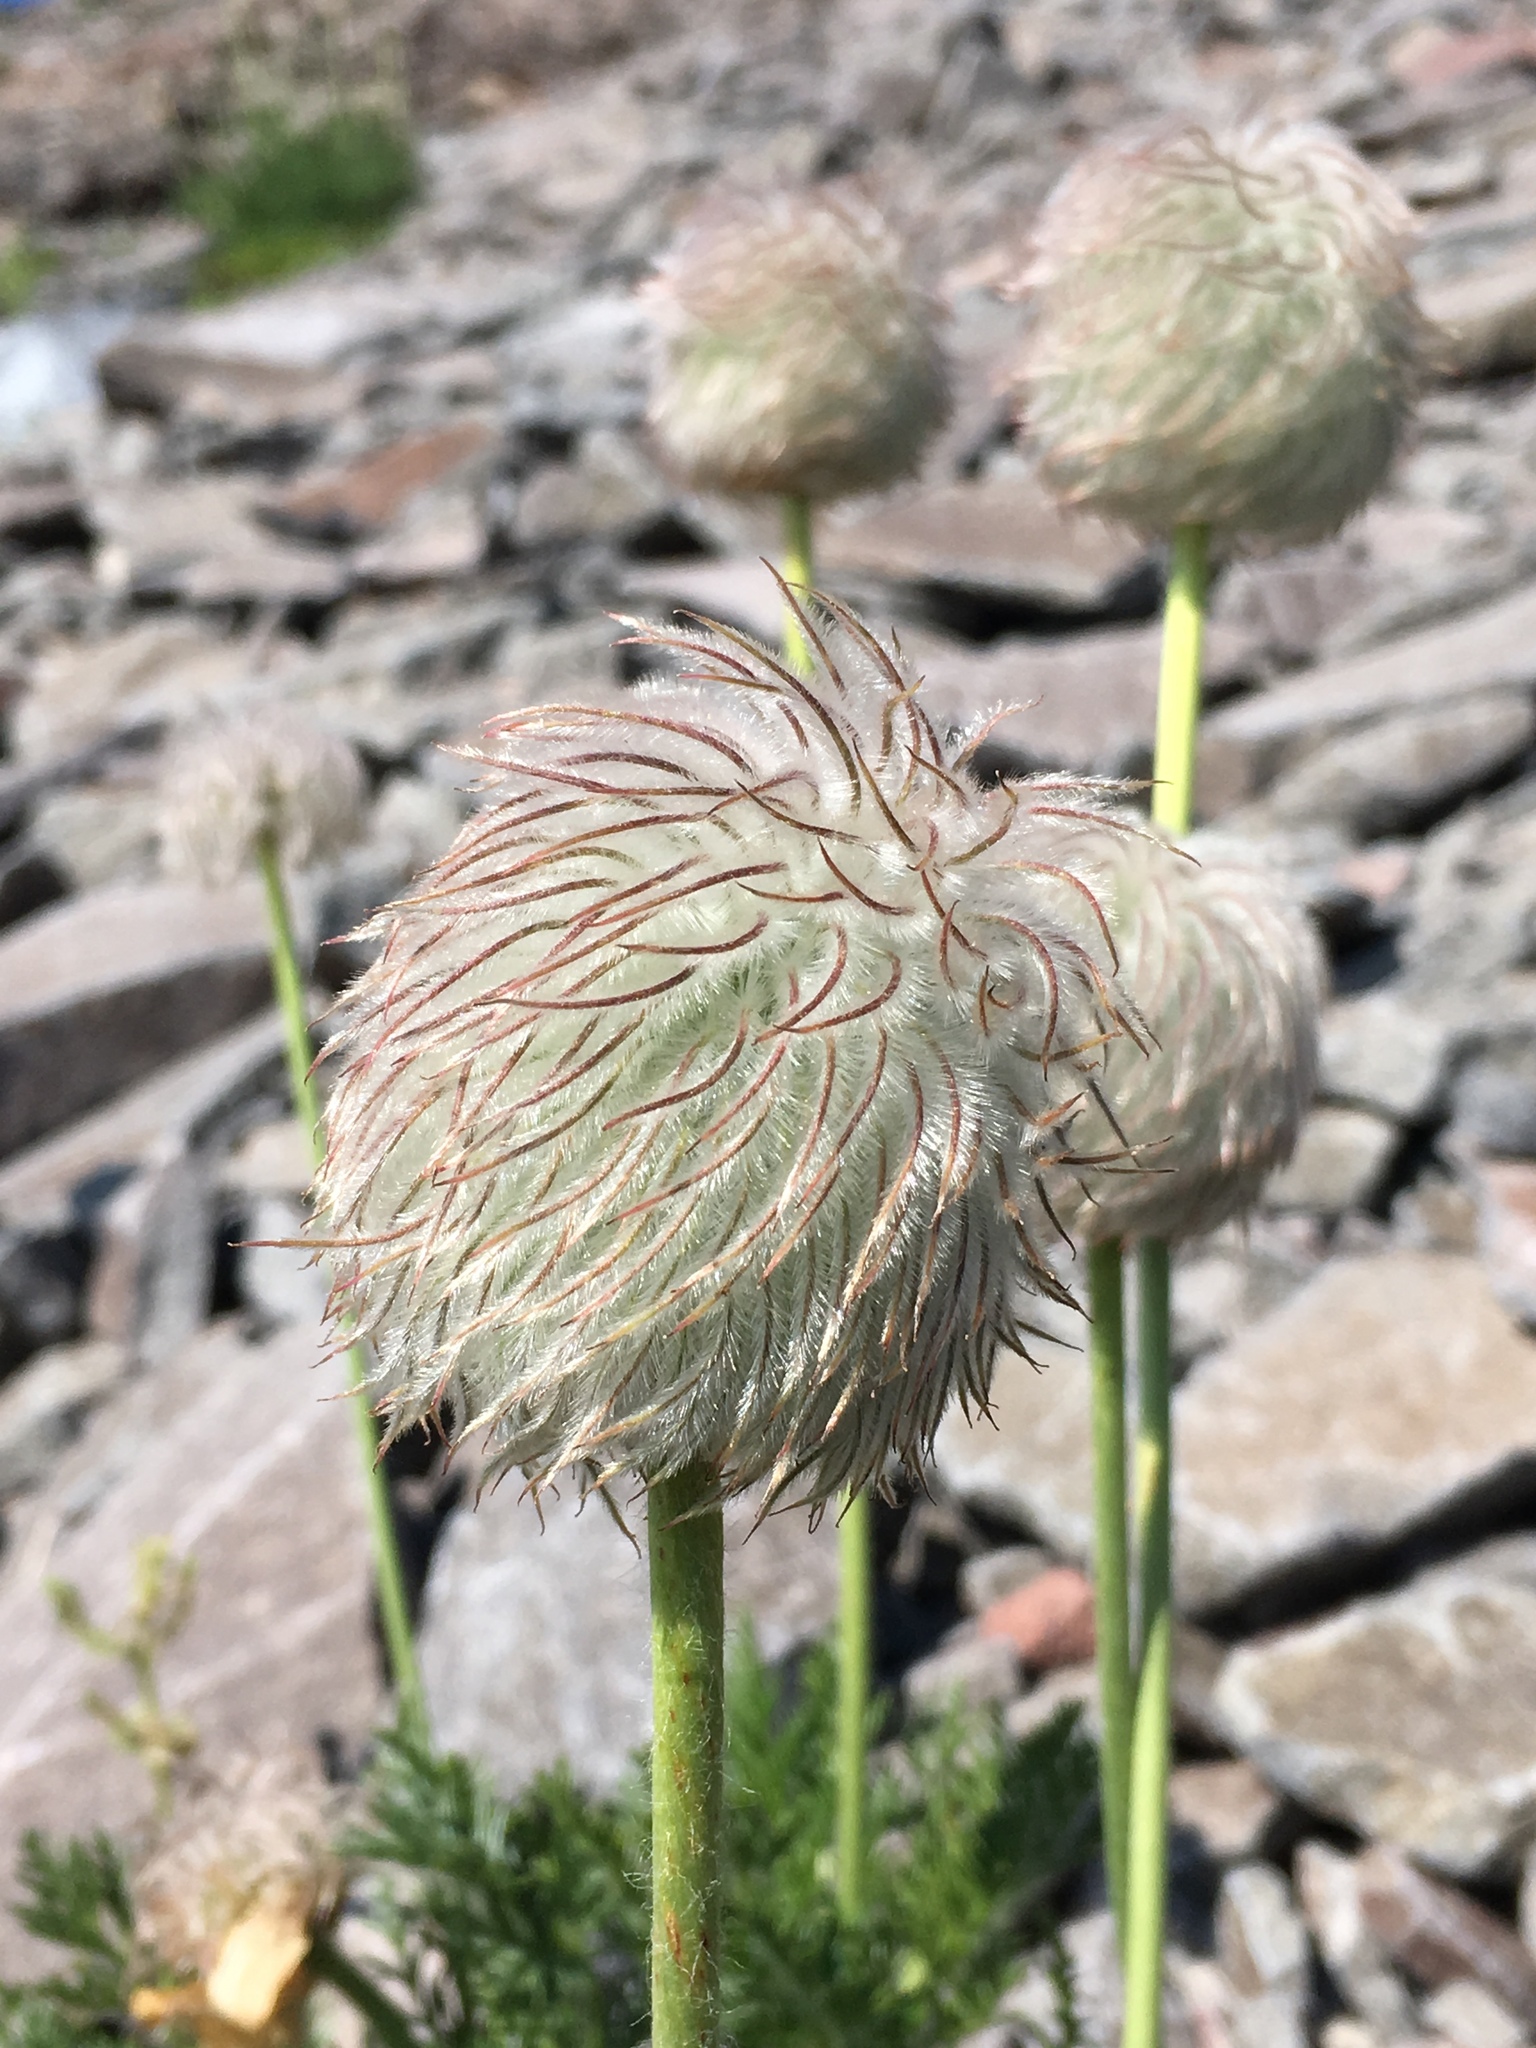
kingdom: Plantae
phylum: Tracheophyta
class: Magnoliopsida
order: Ranunculales
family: Ranunculaceae
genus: Pulsatilla
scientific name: Pulsatilla occidentalis
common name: Mountain pasqueflower
